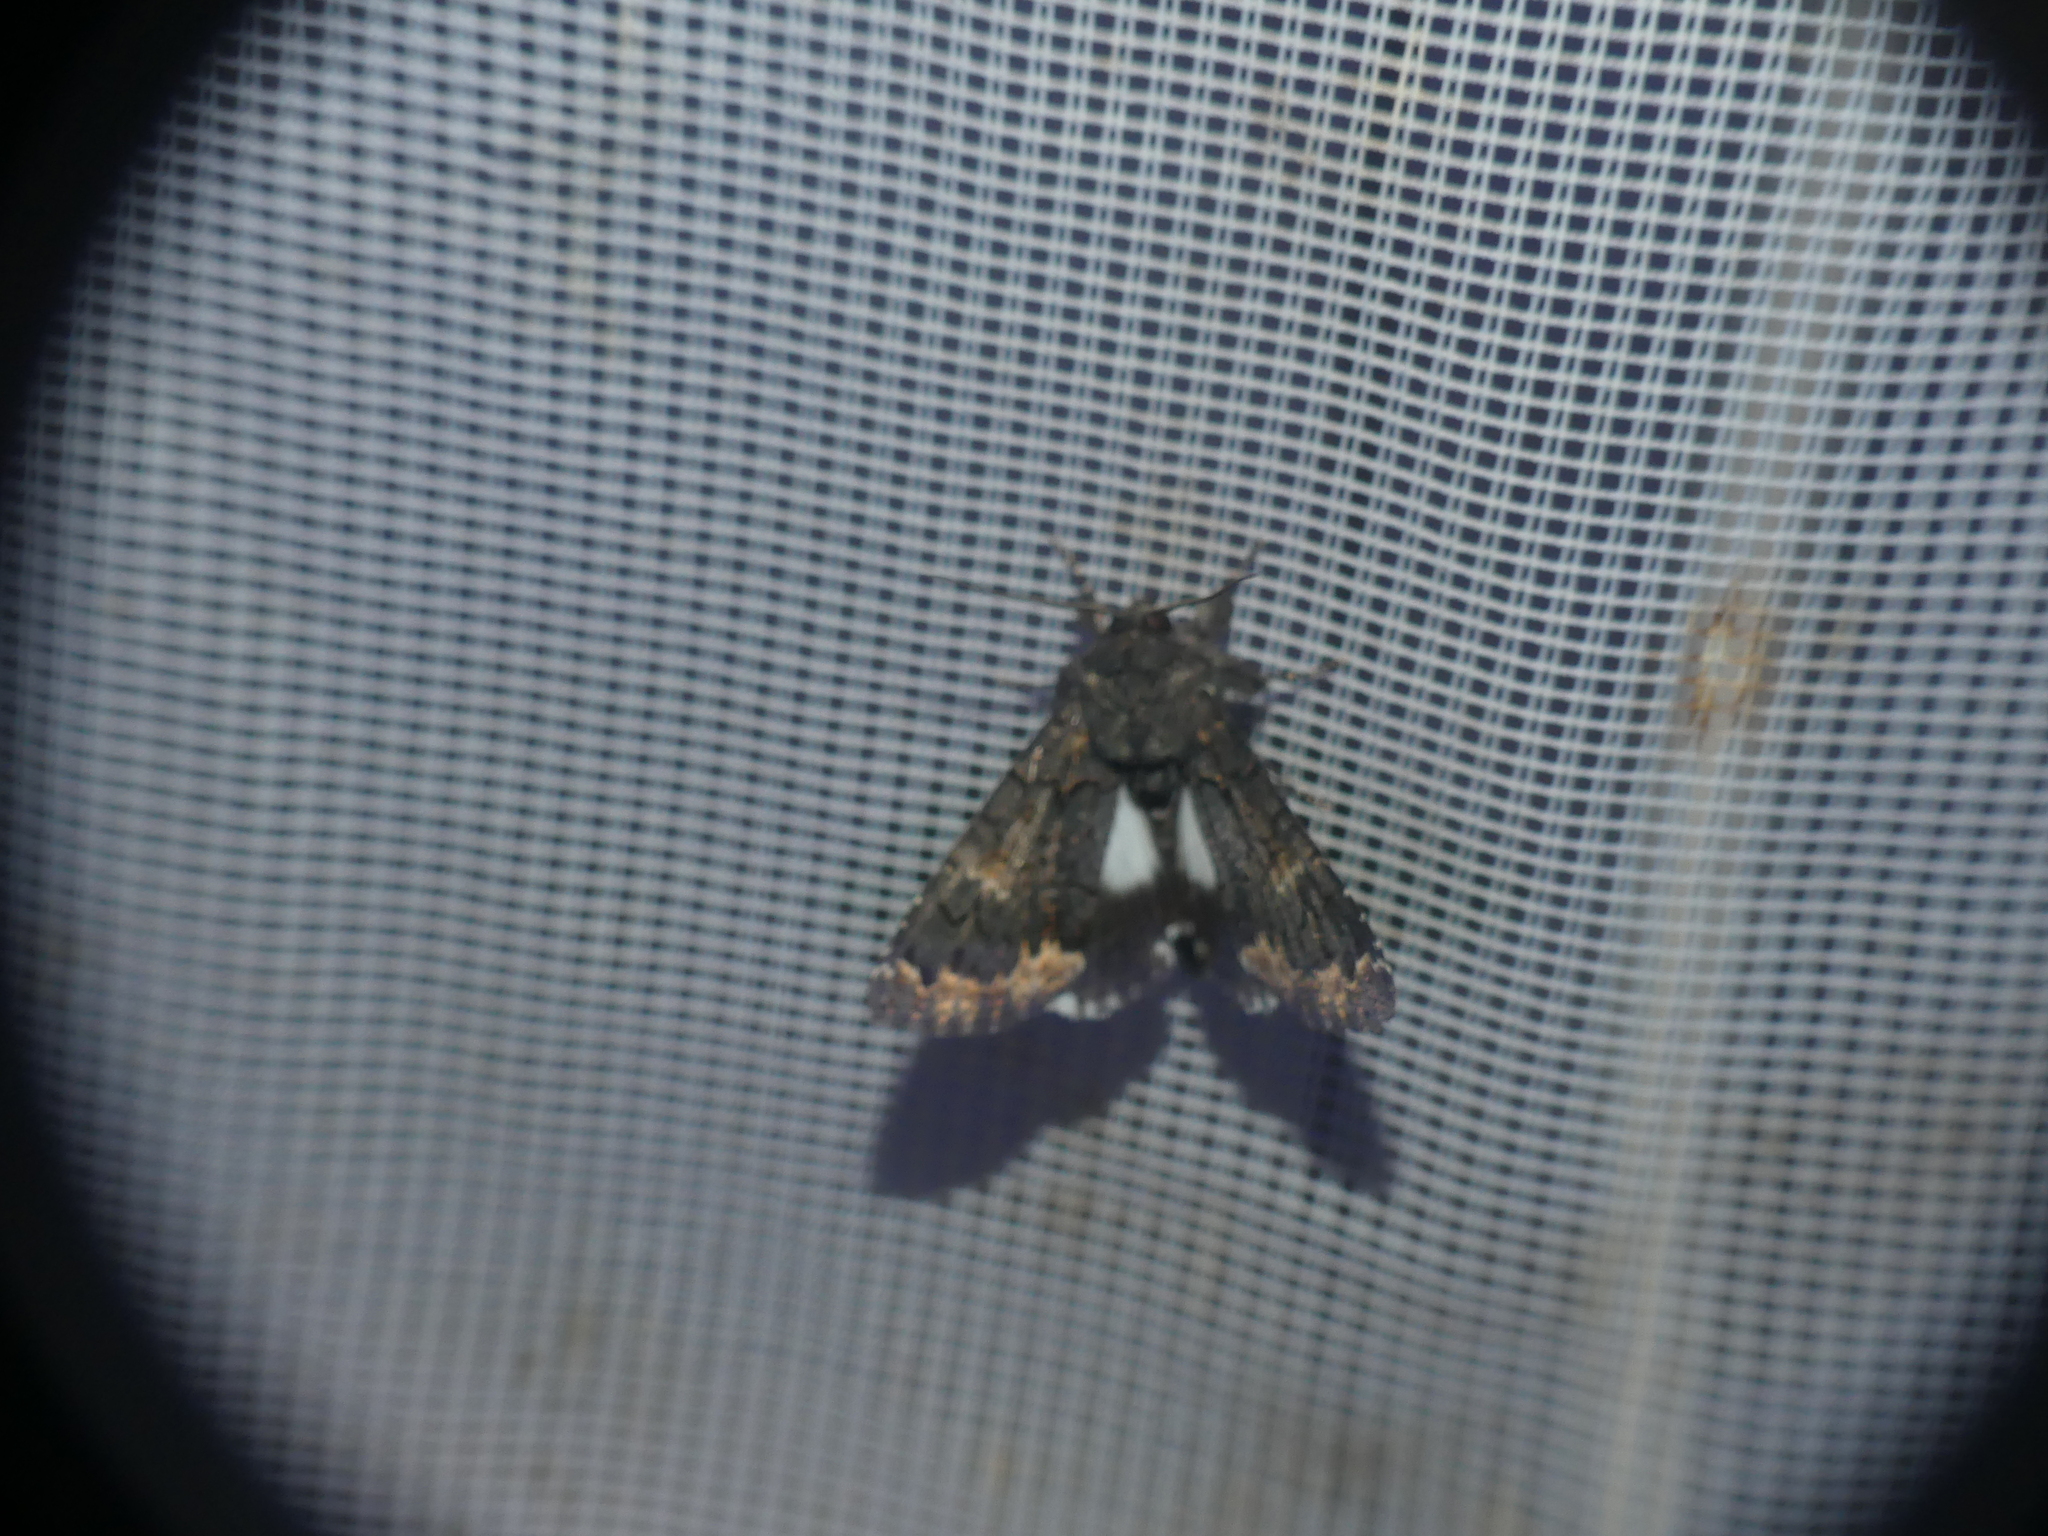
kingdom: Animalia
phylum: Arthropoda
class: Insecta
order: Lepidoptera
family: Erebidae
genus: Catephia
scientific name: Catephia alchymista
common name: Alchymist
